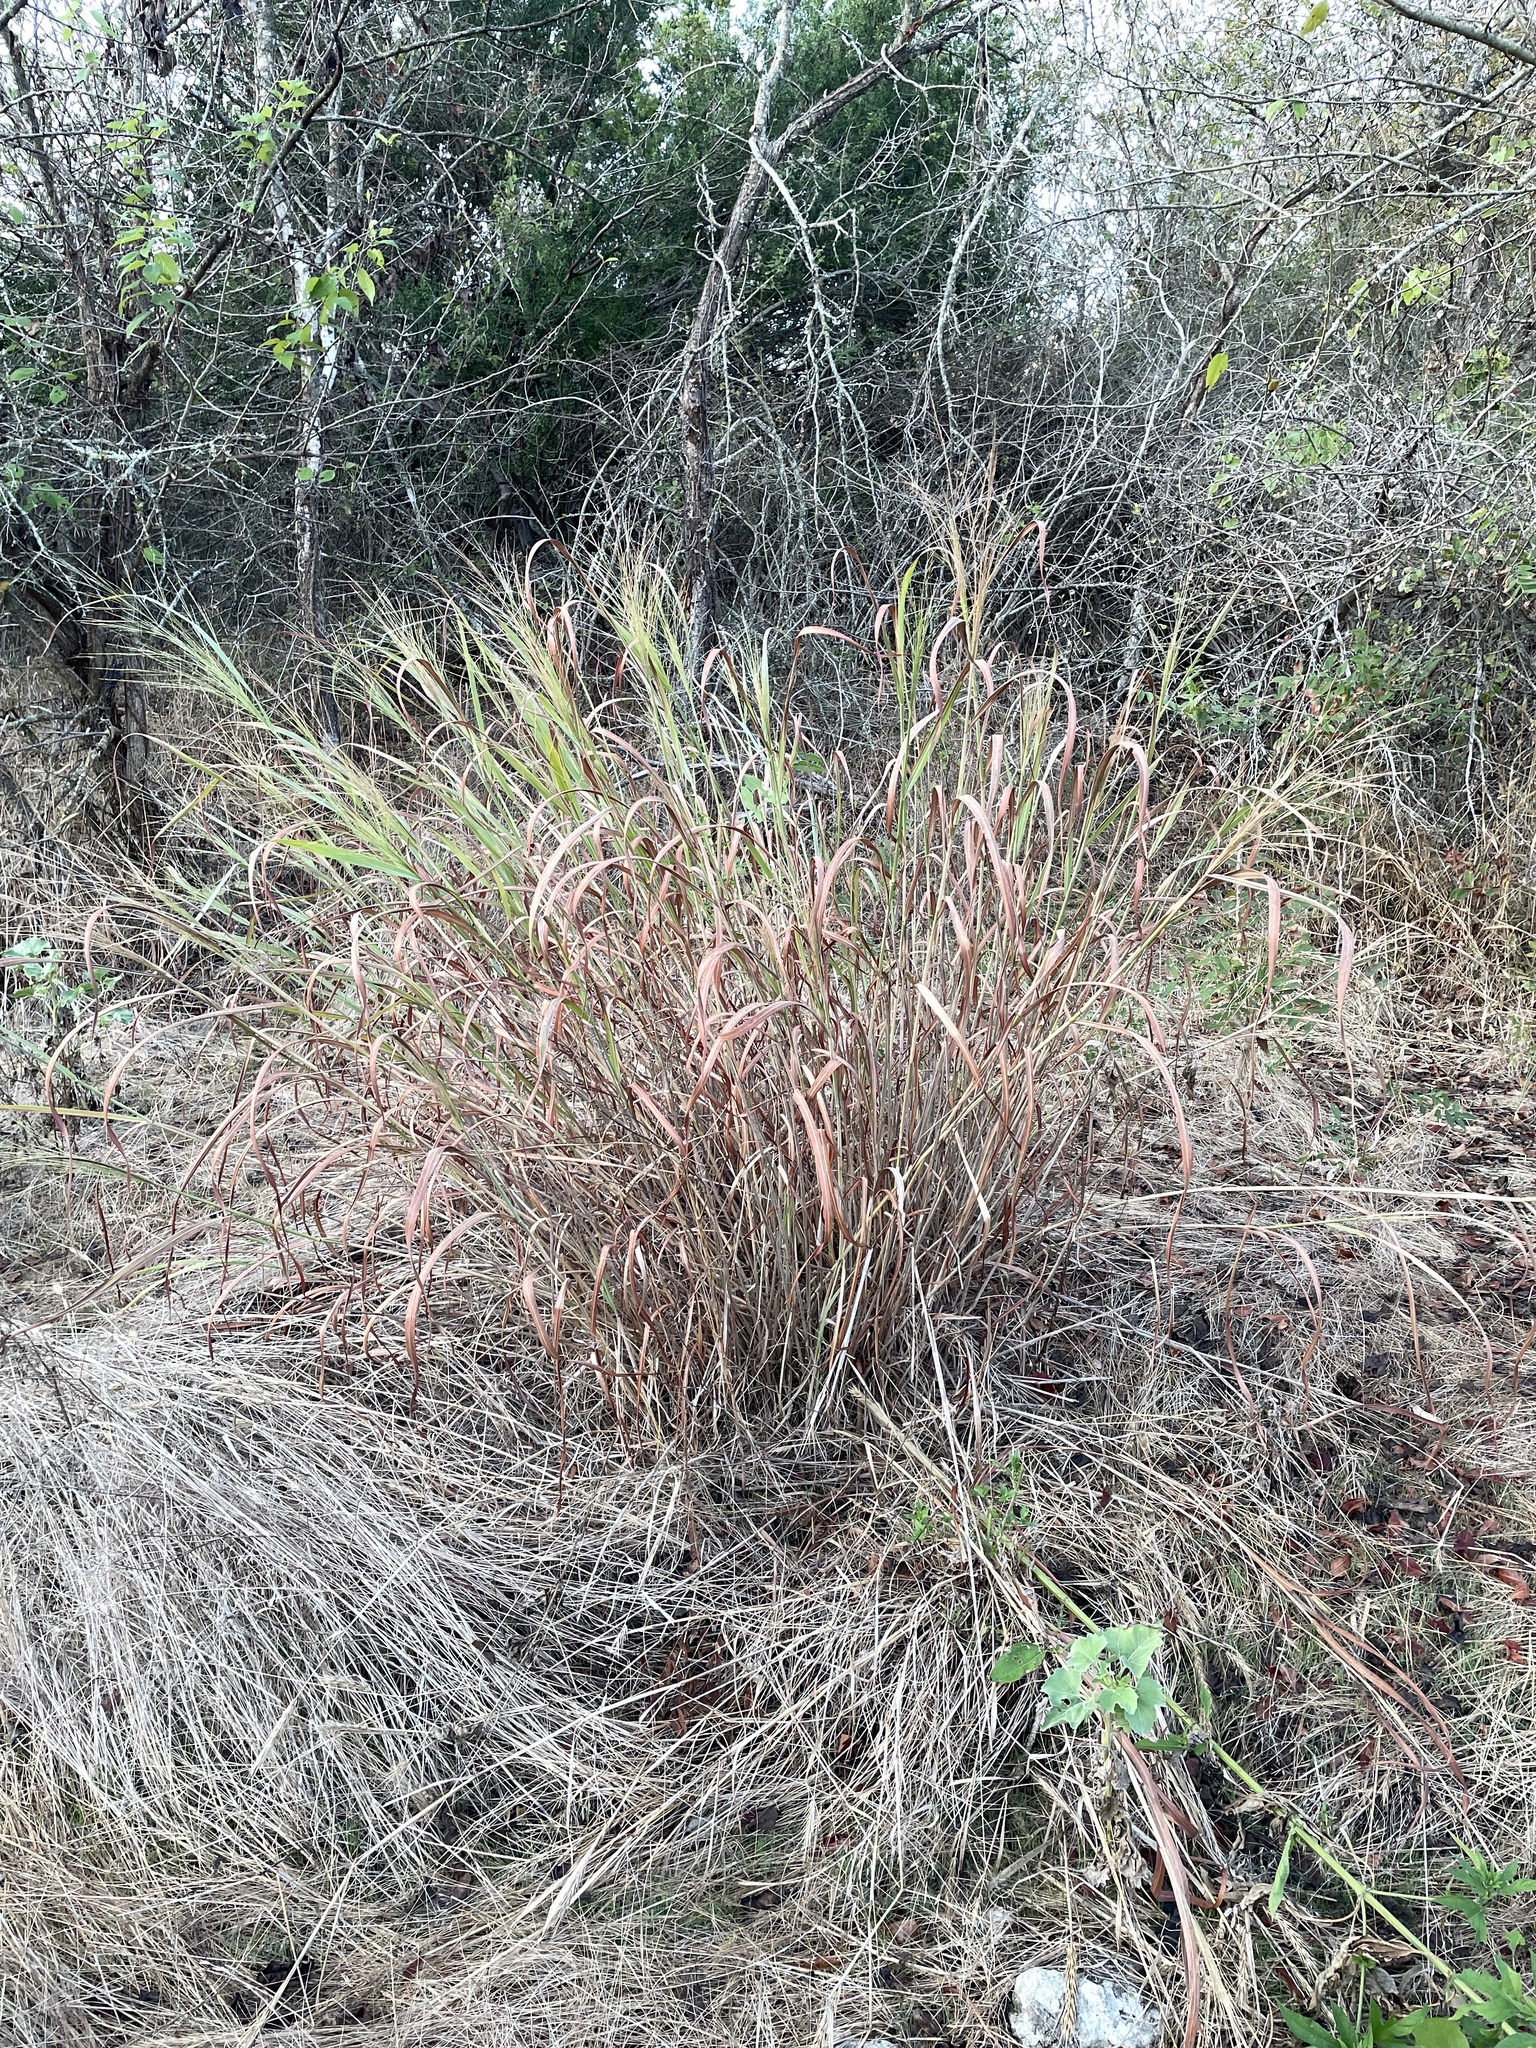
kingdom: Plantae
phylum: Tracheophyta
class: Liliopsida
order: Poales
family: Poaceae
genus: Panicum
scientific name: Panicum virgatum
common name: Switchgrass
